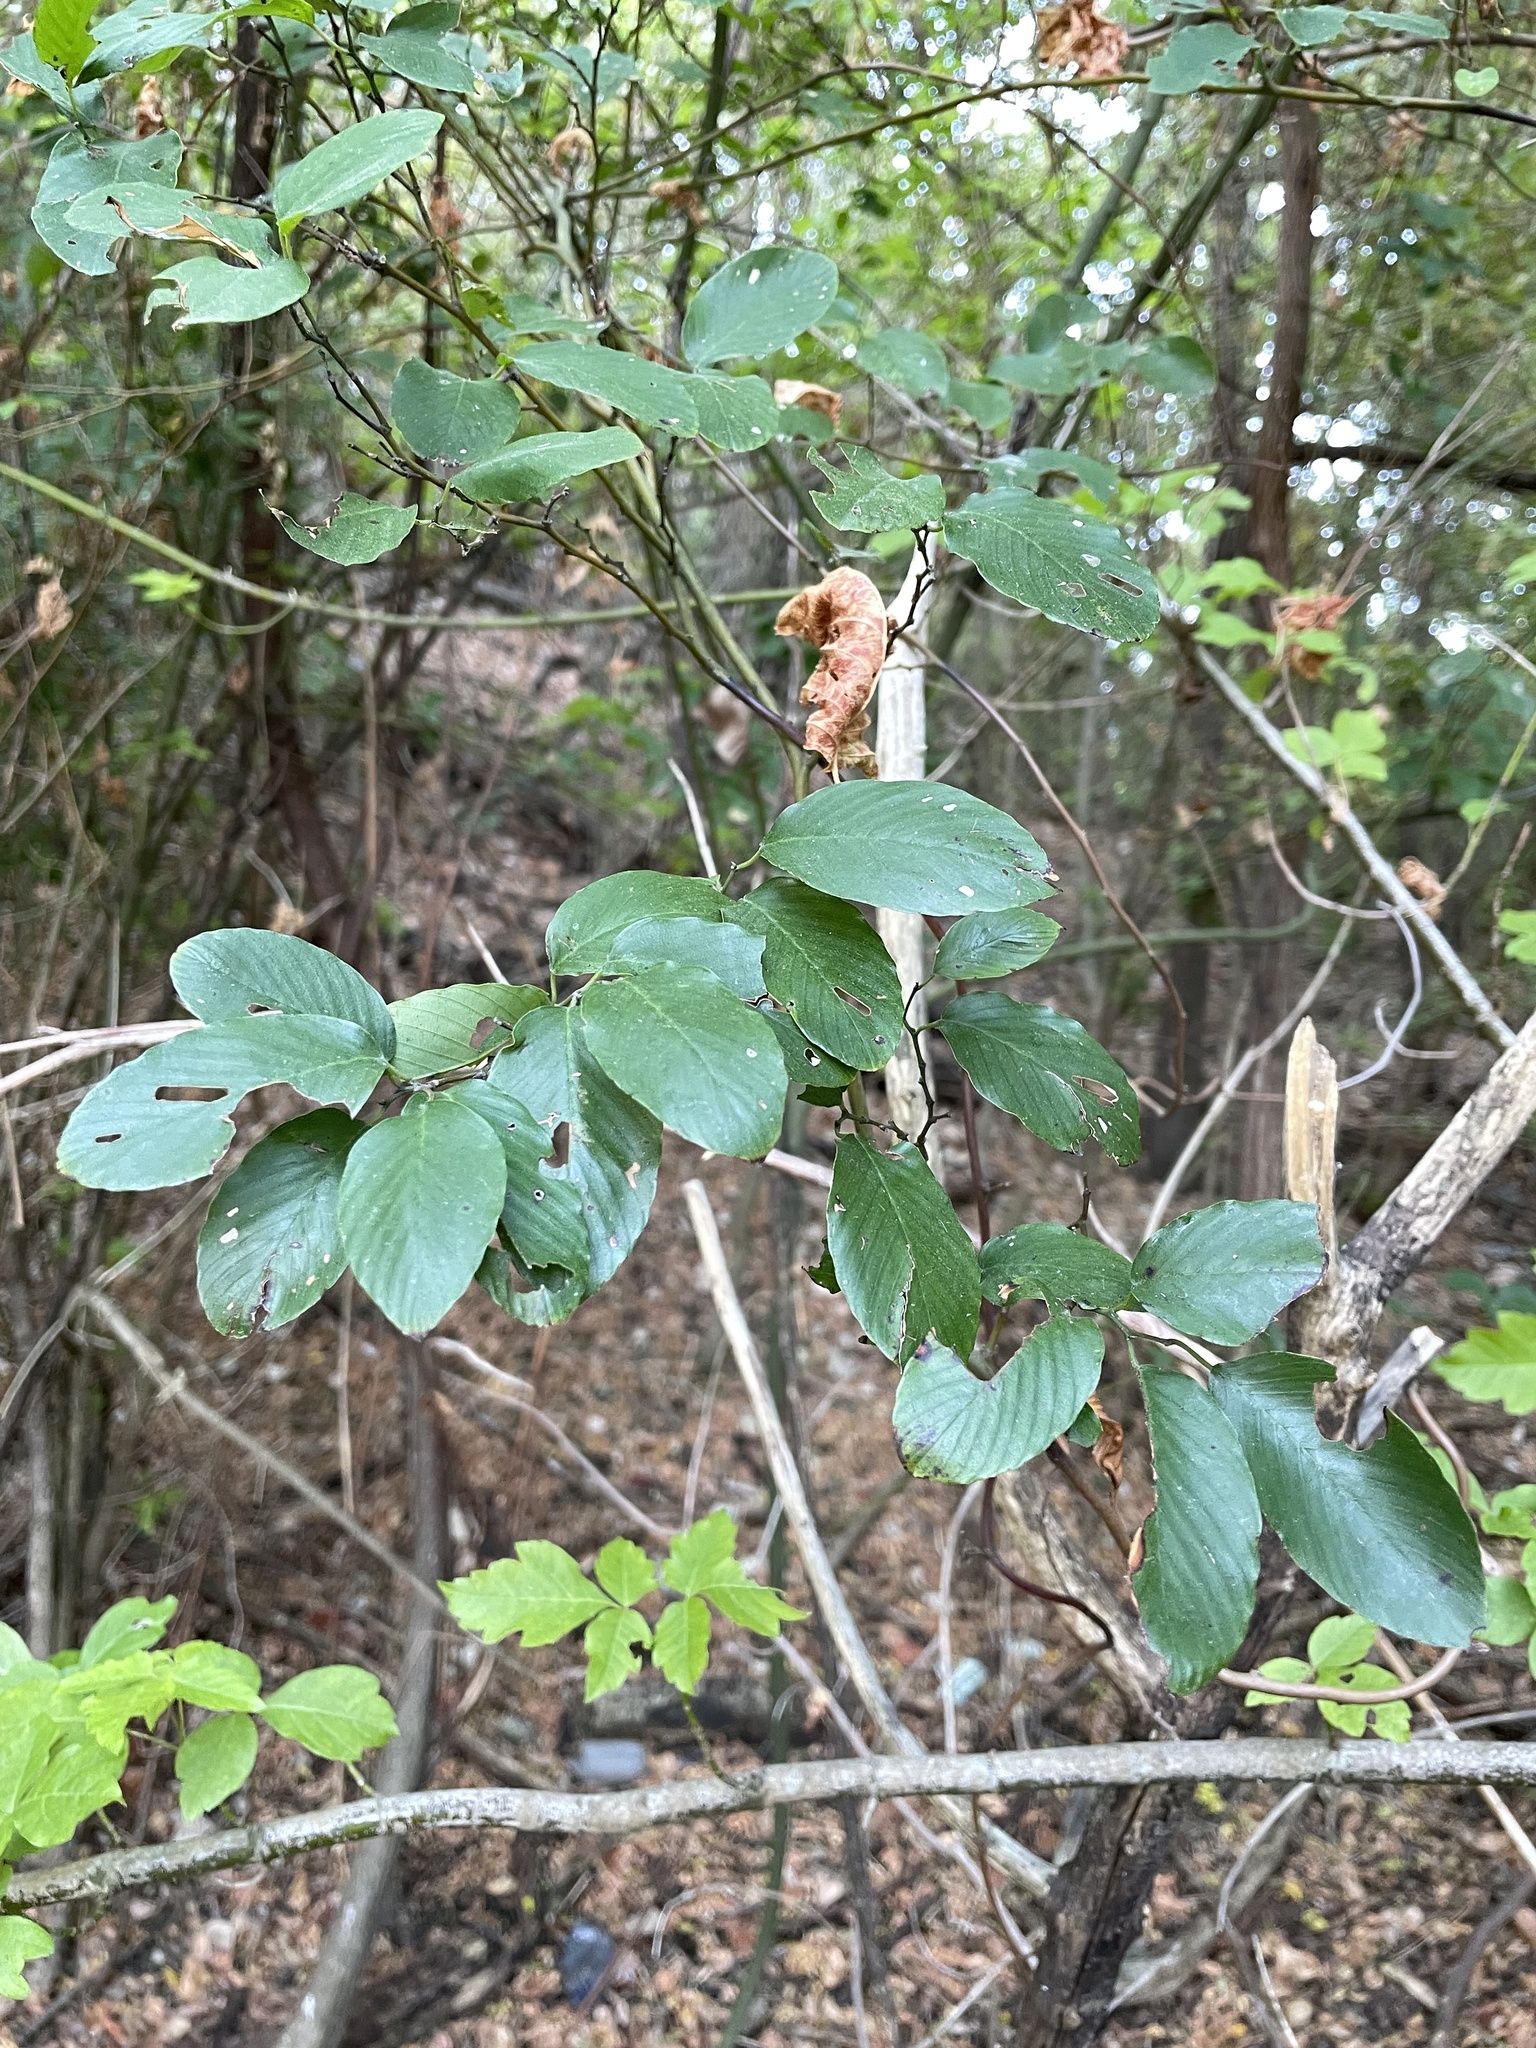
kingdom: Plantae
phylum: Tracheophyta
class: Magnoliopsida
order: Rosales
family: Rhamnaceae
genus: Berchemia
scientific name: Berchemia scandens
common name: Supplejack
